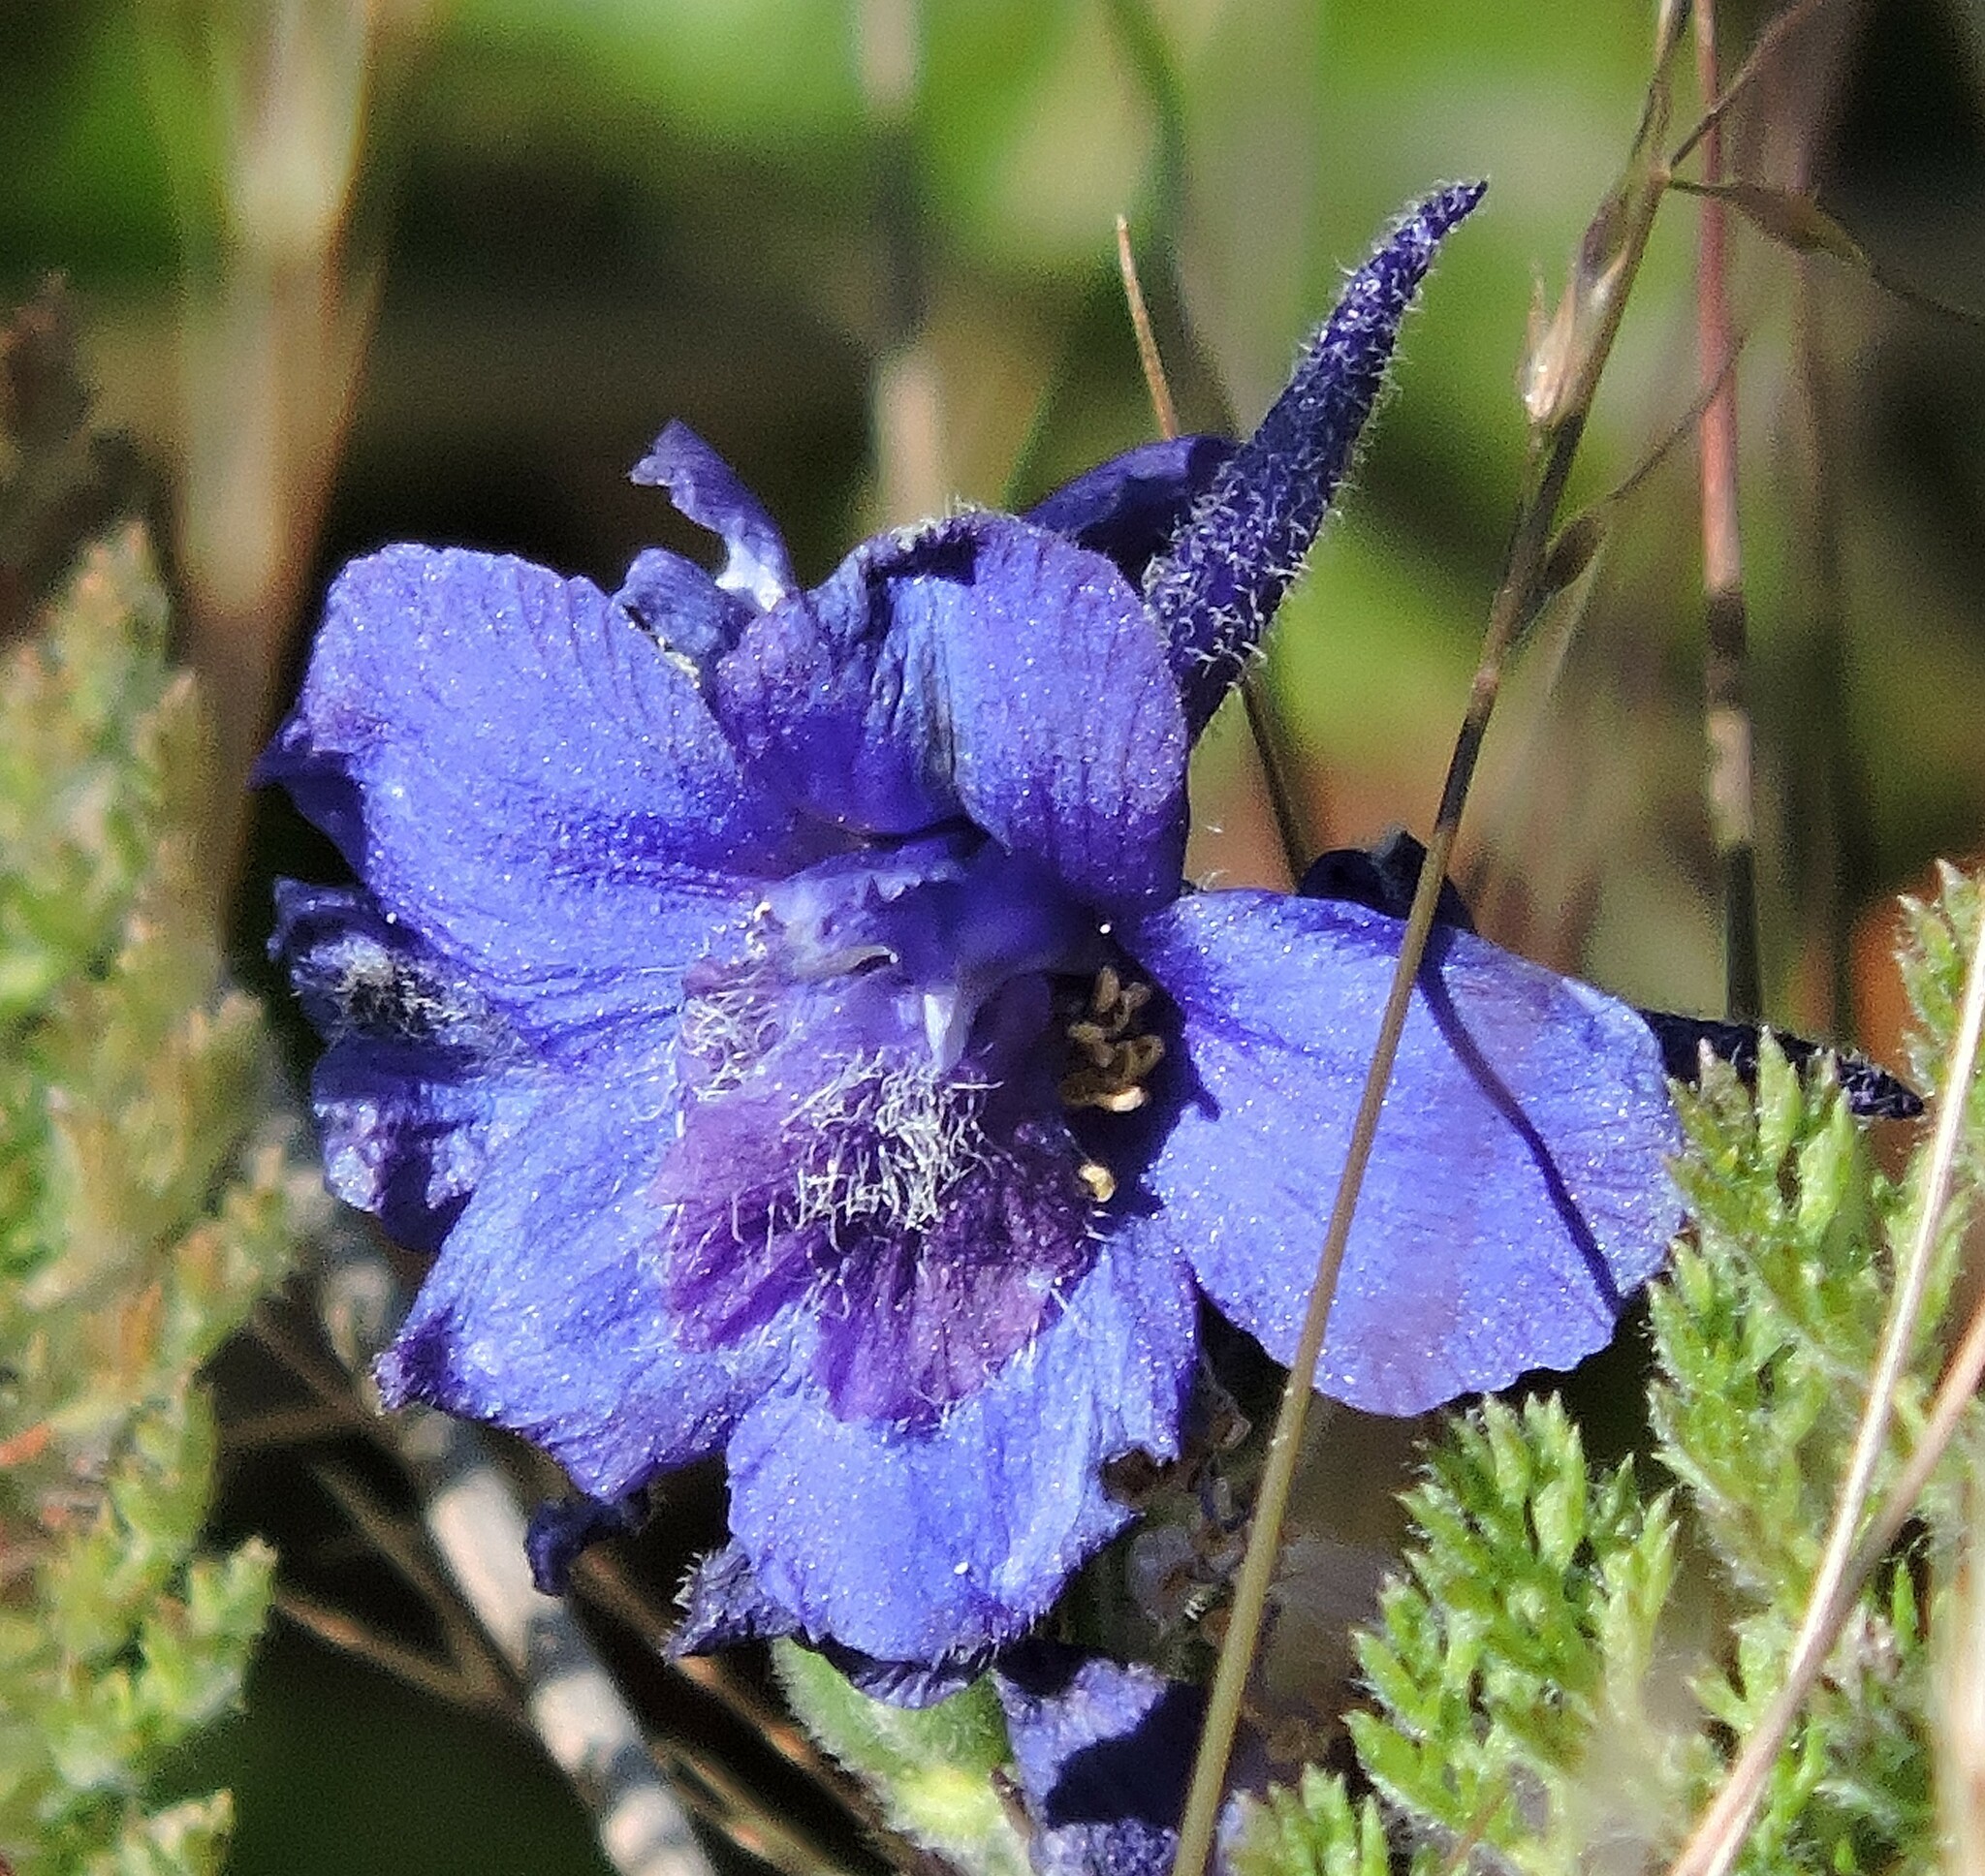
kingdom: Plantae
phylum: Tracheophyta
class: Magnoliopsida
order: Ranunculales
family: Ranunculaceae
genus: Delphinium
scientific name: Delphinium hesperium
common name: Western larkspur
